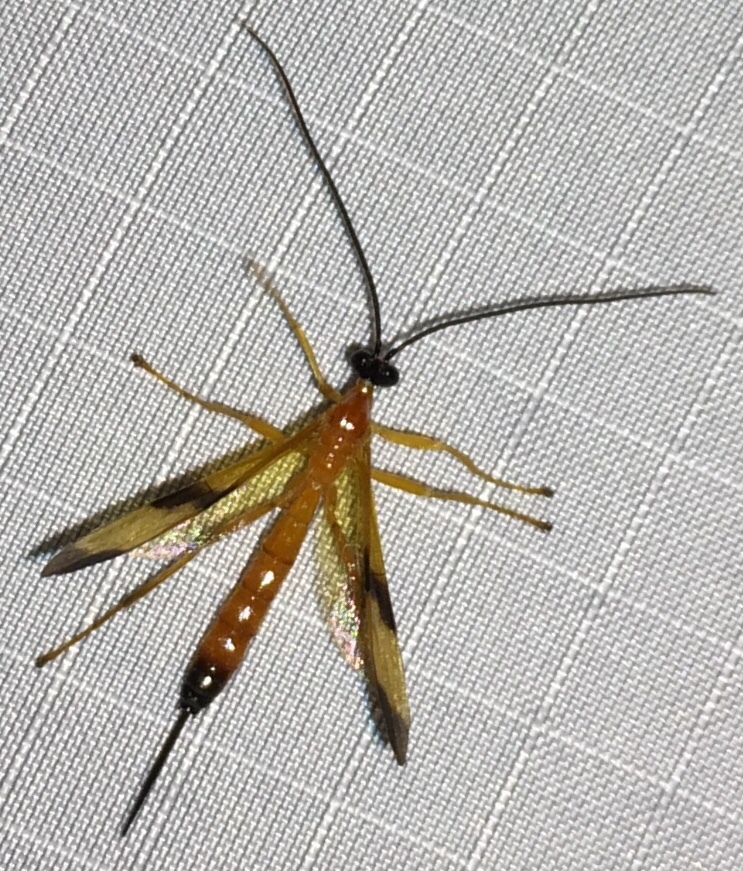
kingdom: Animalia
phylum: Arthropoda
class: Insecta
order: Hymenoptera
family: Ichneumonidae
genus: Acrotaphus
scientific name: Acrotaphus wiltii
